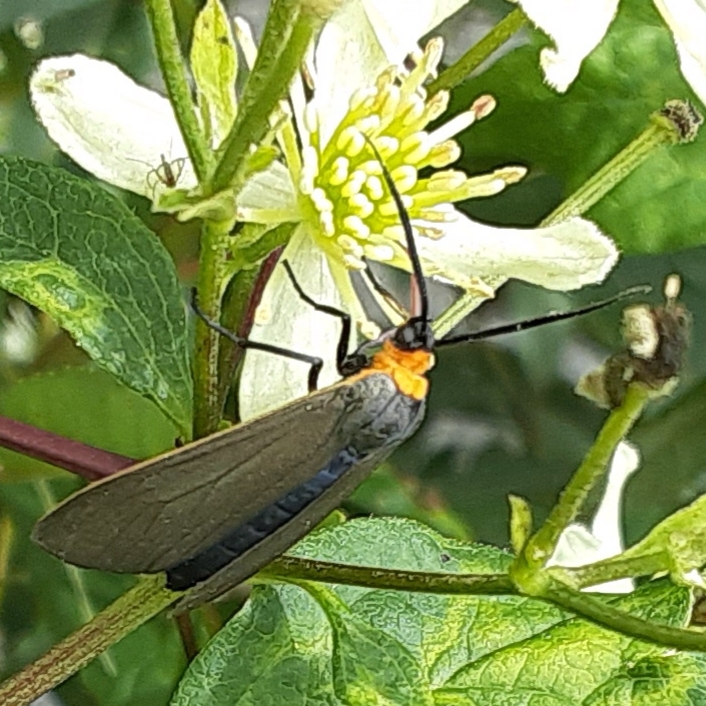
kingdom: Animalia
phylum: Arthropoda
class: Insecta
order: Lepidoptera
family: Erebidae
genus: Cisseps
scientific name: Cisseps fulvicollis
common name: Yellow-collared scape moth
